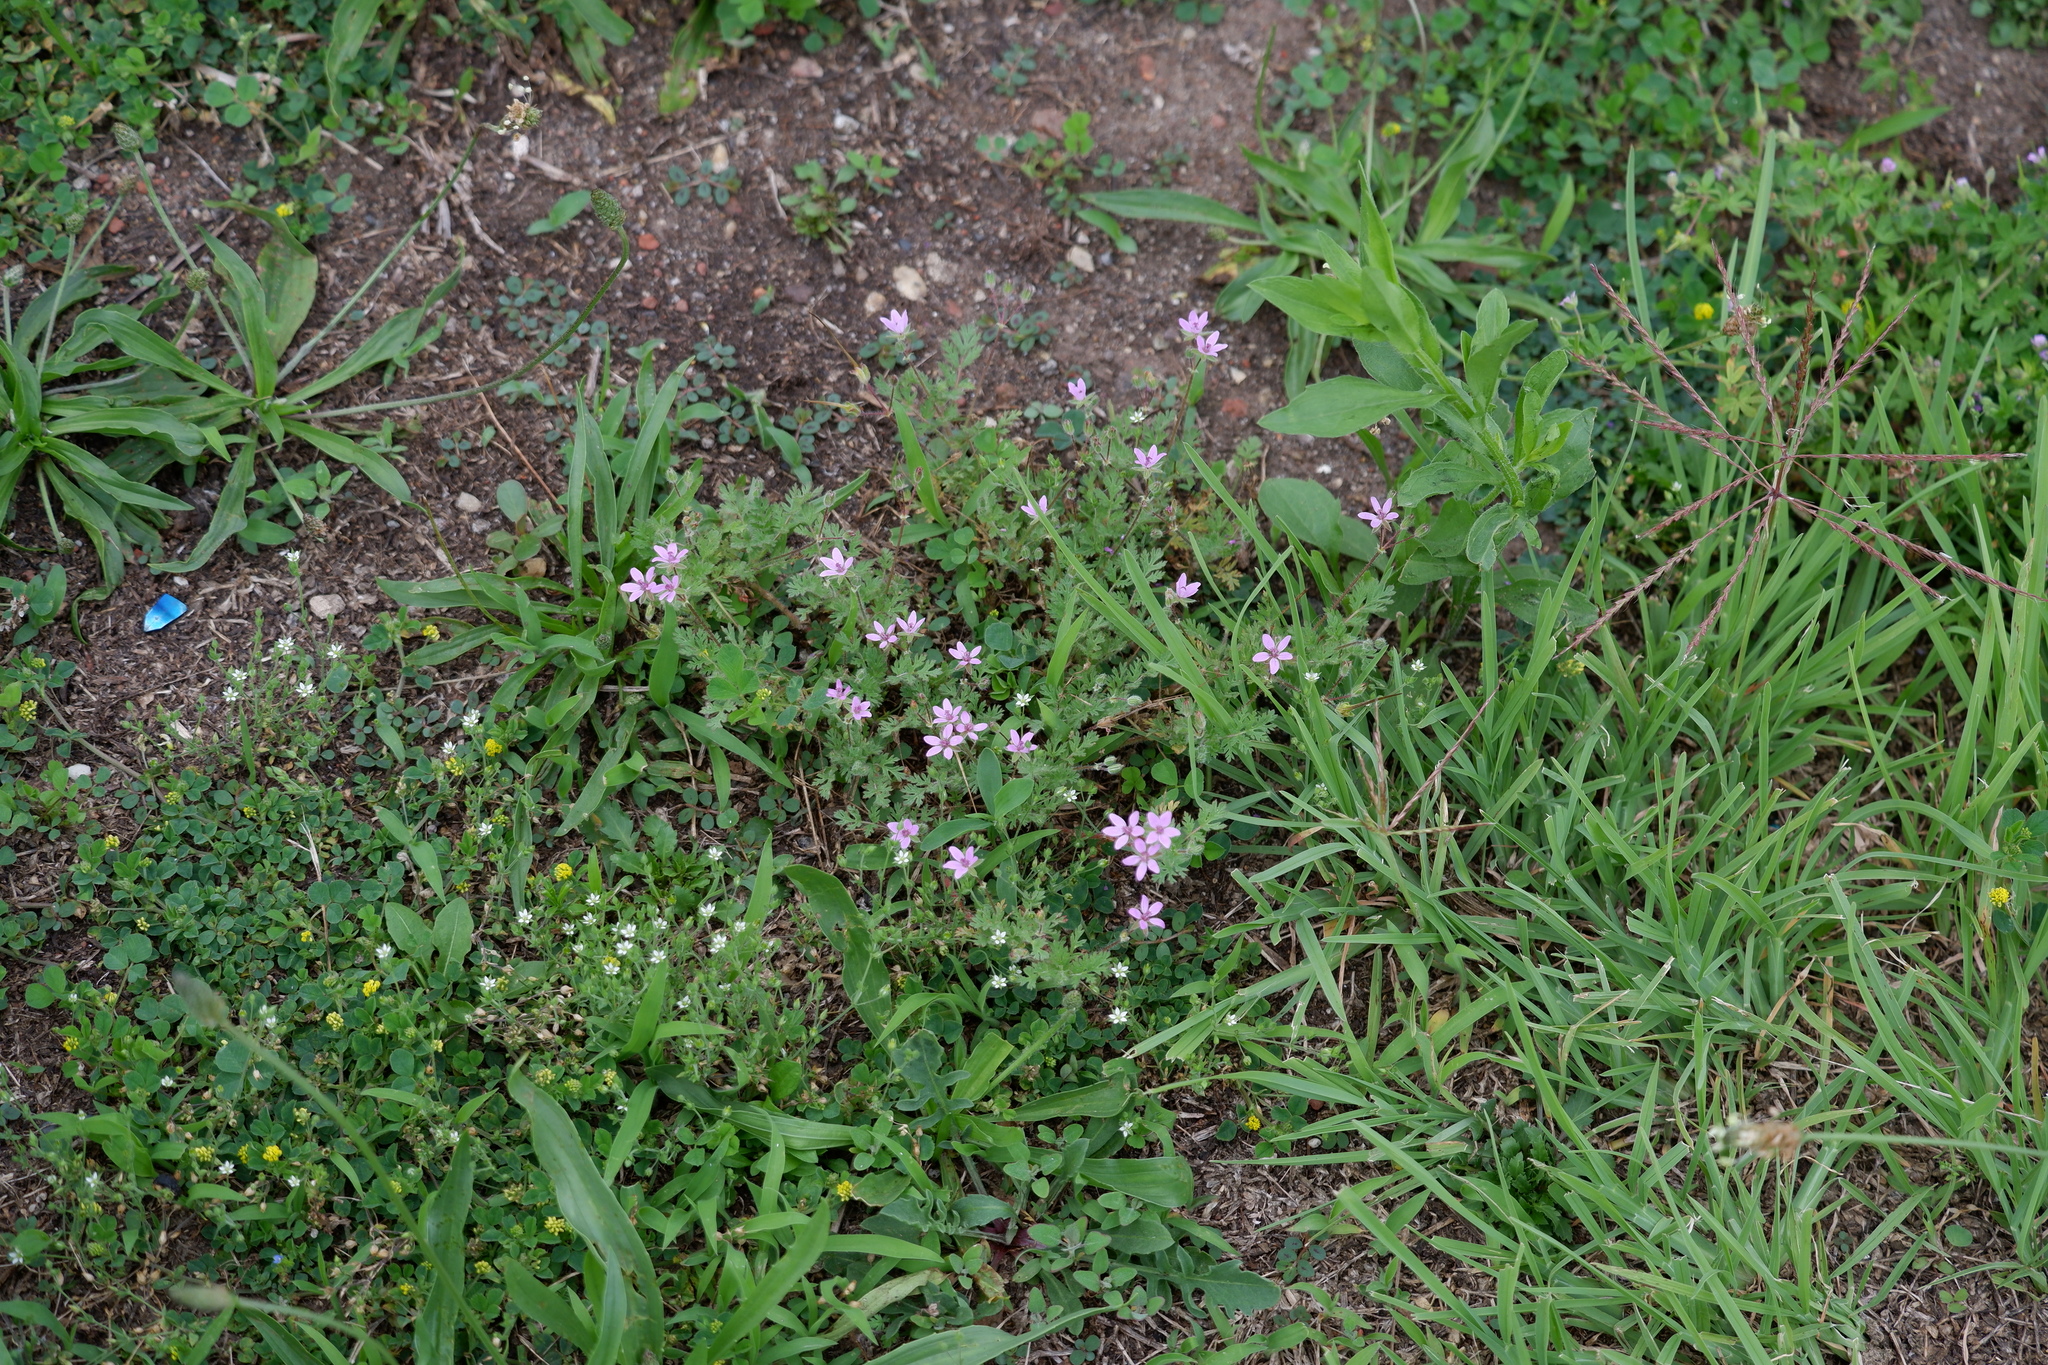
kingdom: Plantae
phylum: Tracheophyta
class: Magnoliopsida
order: Geraniales
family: Geraniaceae
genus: Erodium
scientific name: Erodium cicutarium
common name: Common stork's-bill
